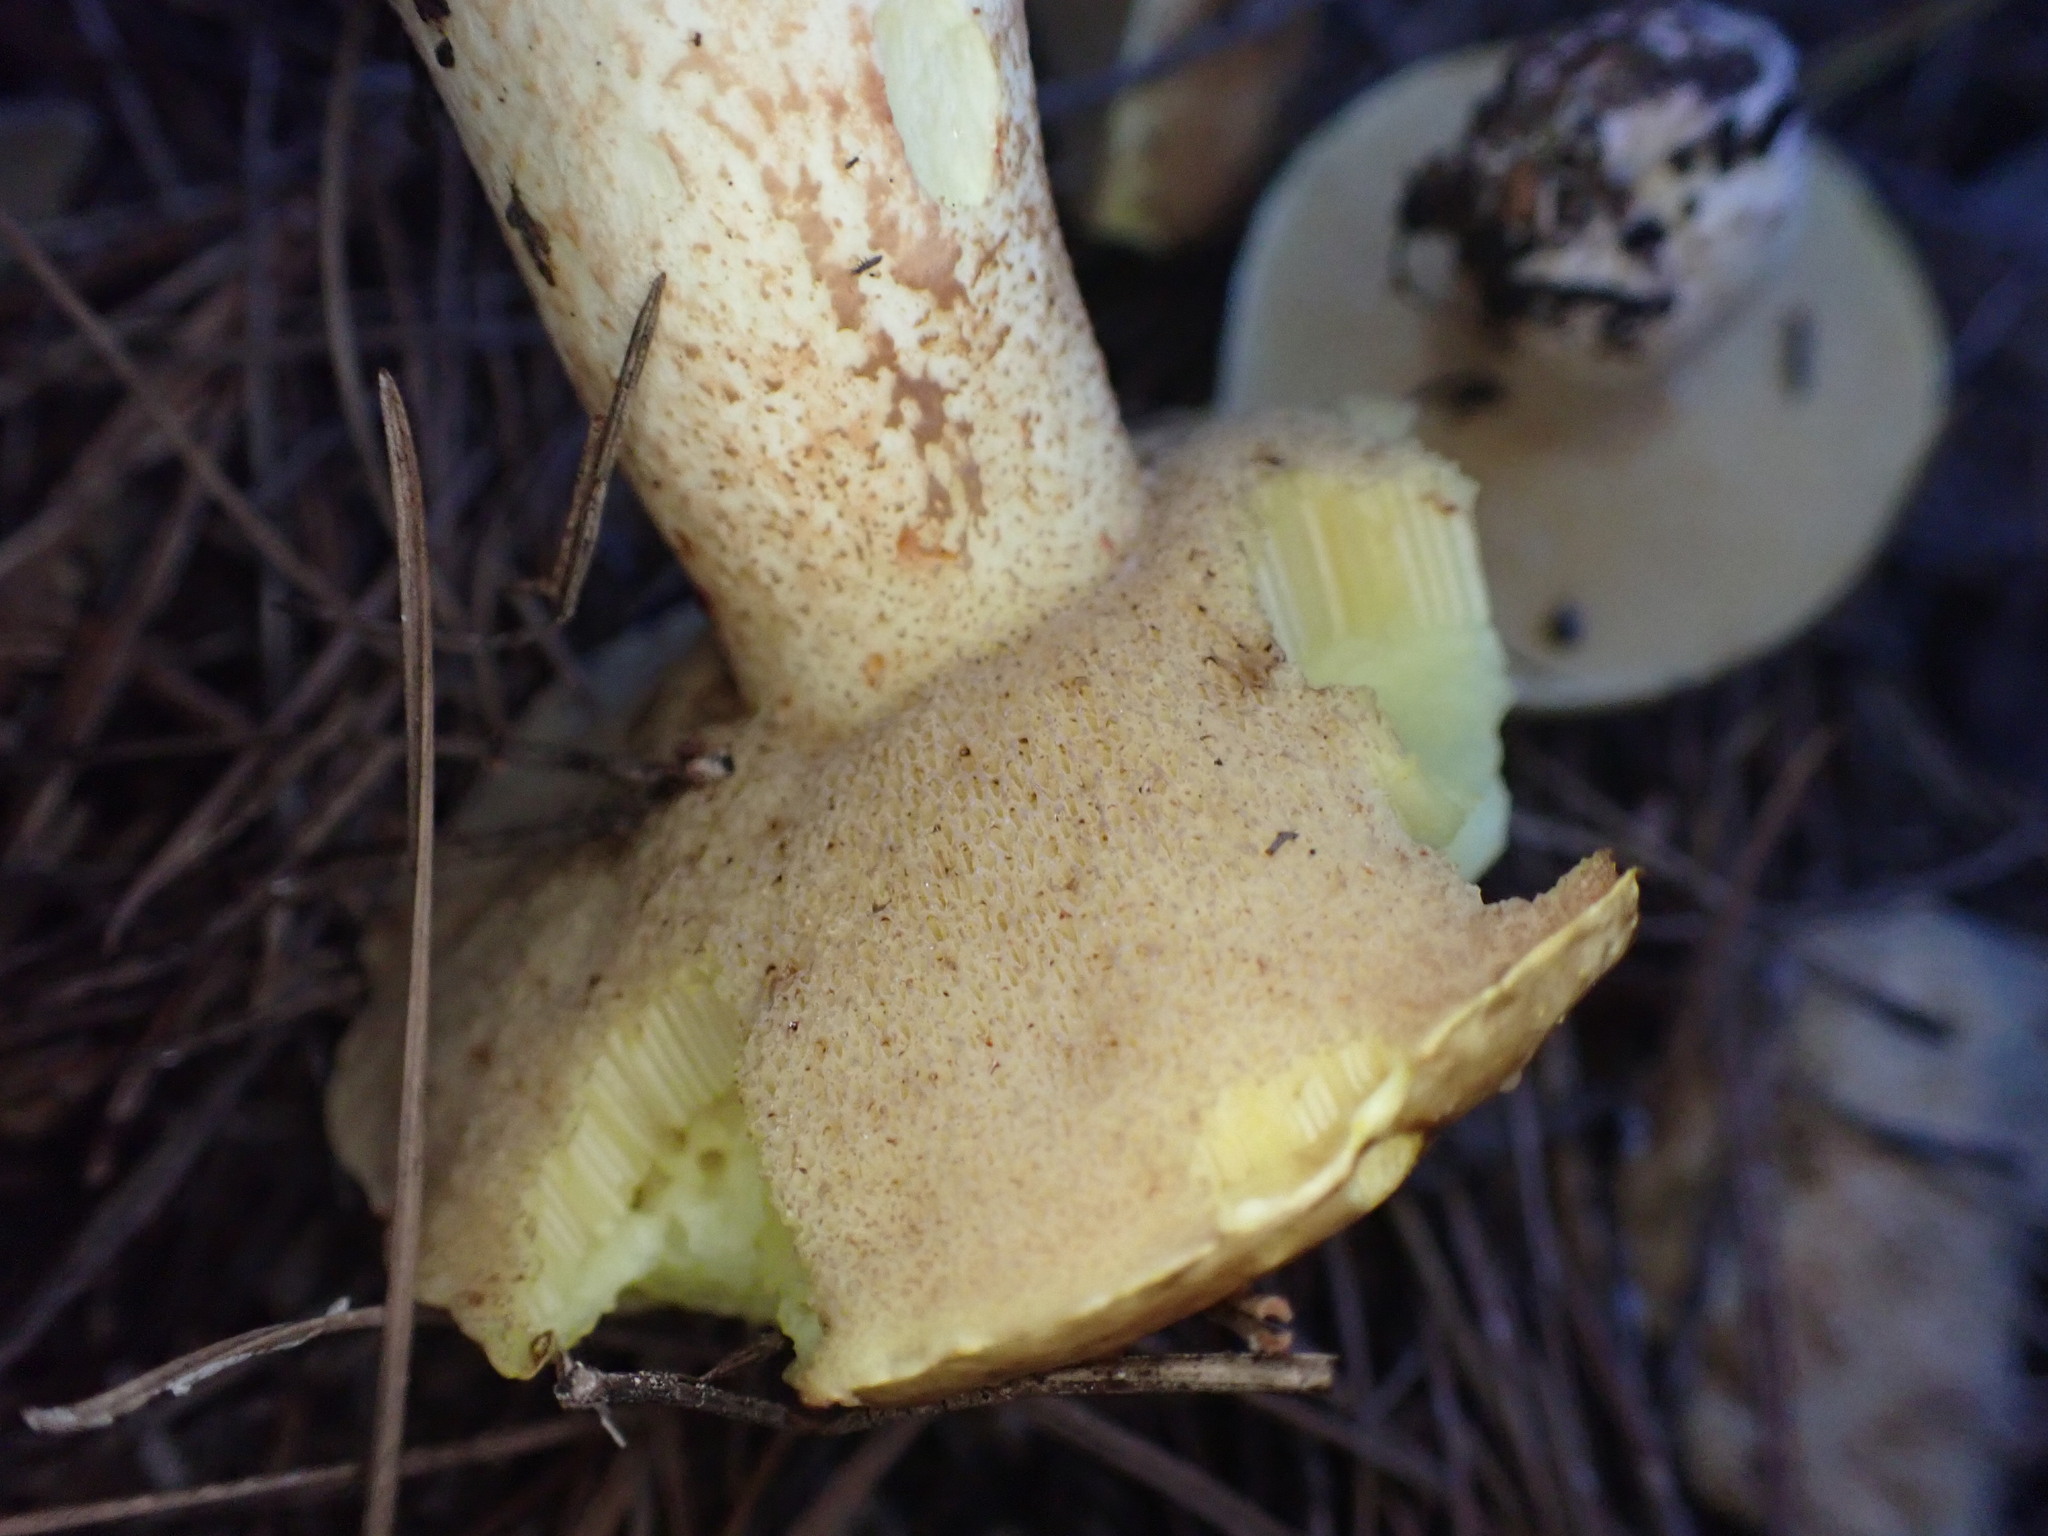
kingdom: Fungi
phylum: Basidiomycota
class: Agaricomycetes
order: Boletales
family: Suillaceae
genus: Suillus
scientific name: Suillus granulatus
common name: Weeping bolete
